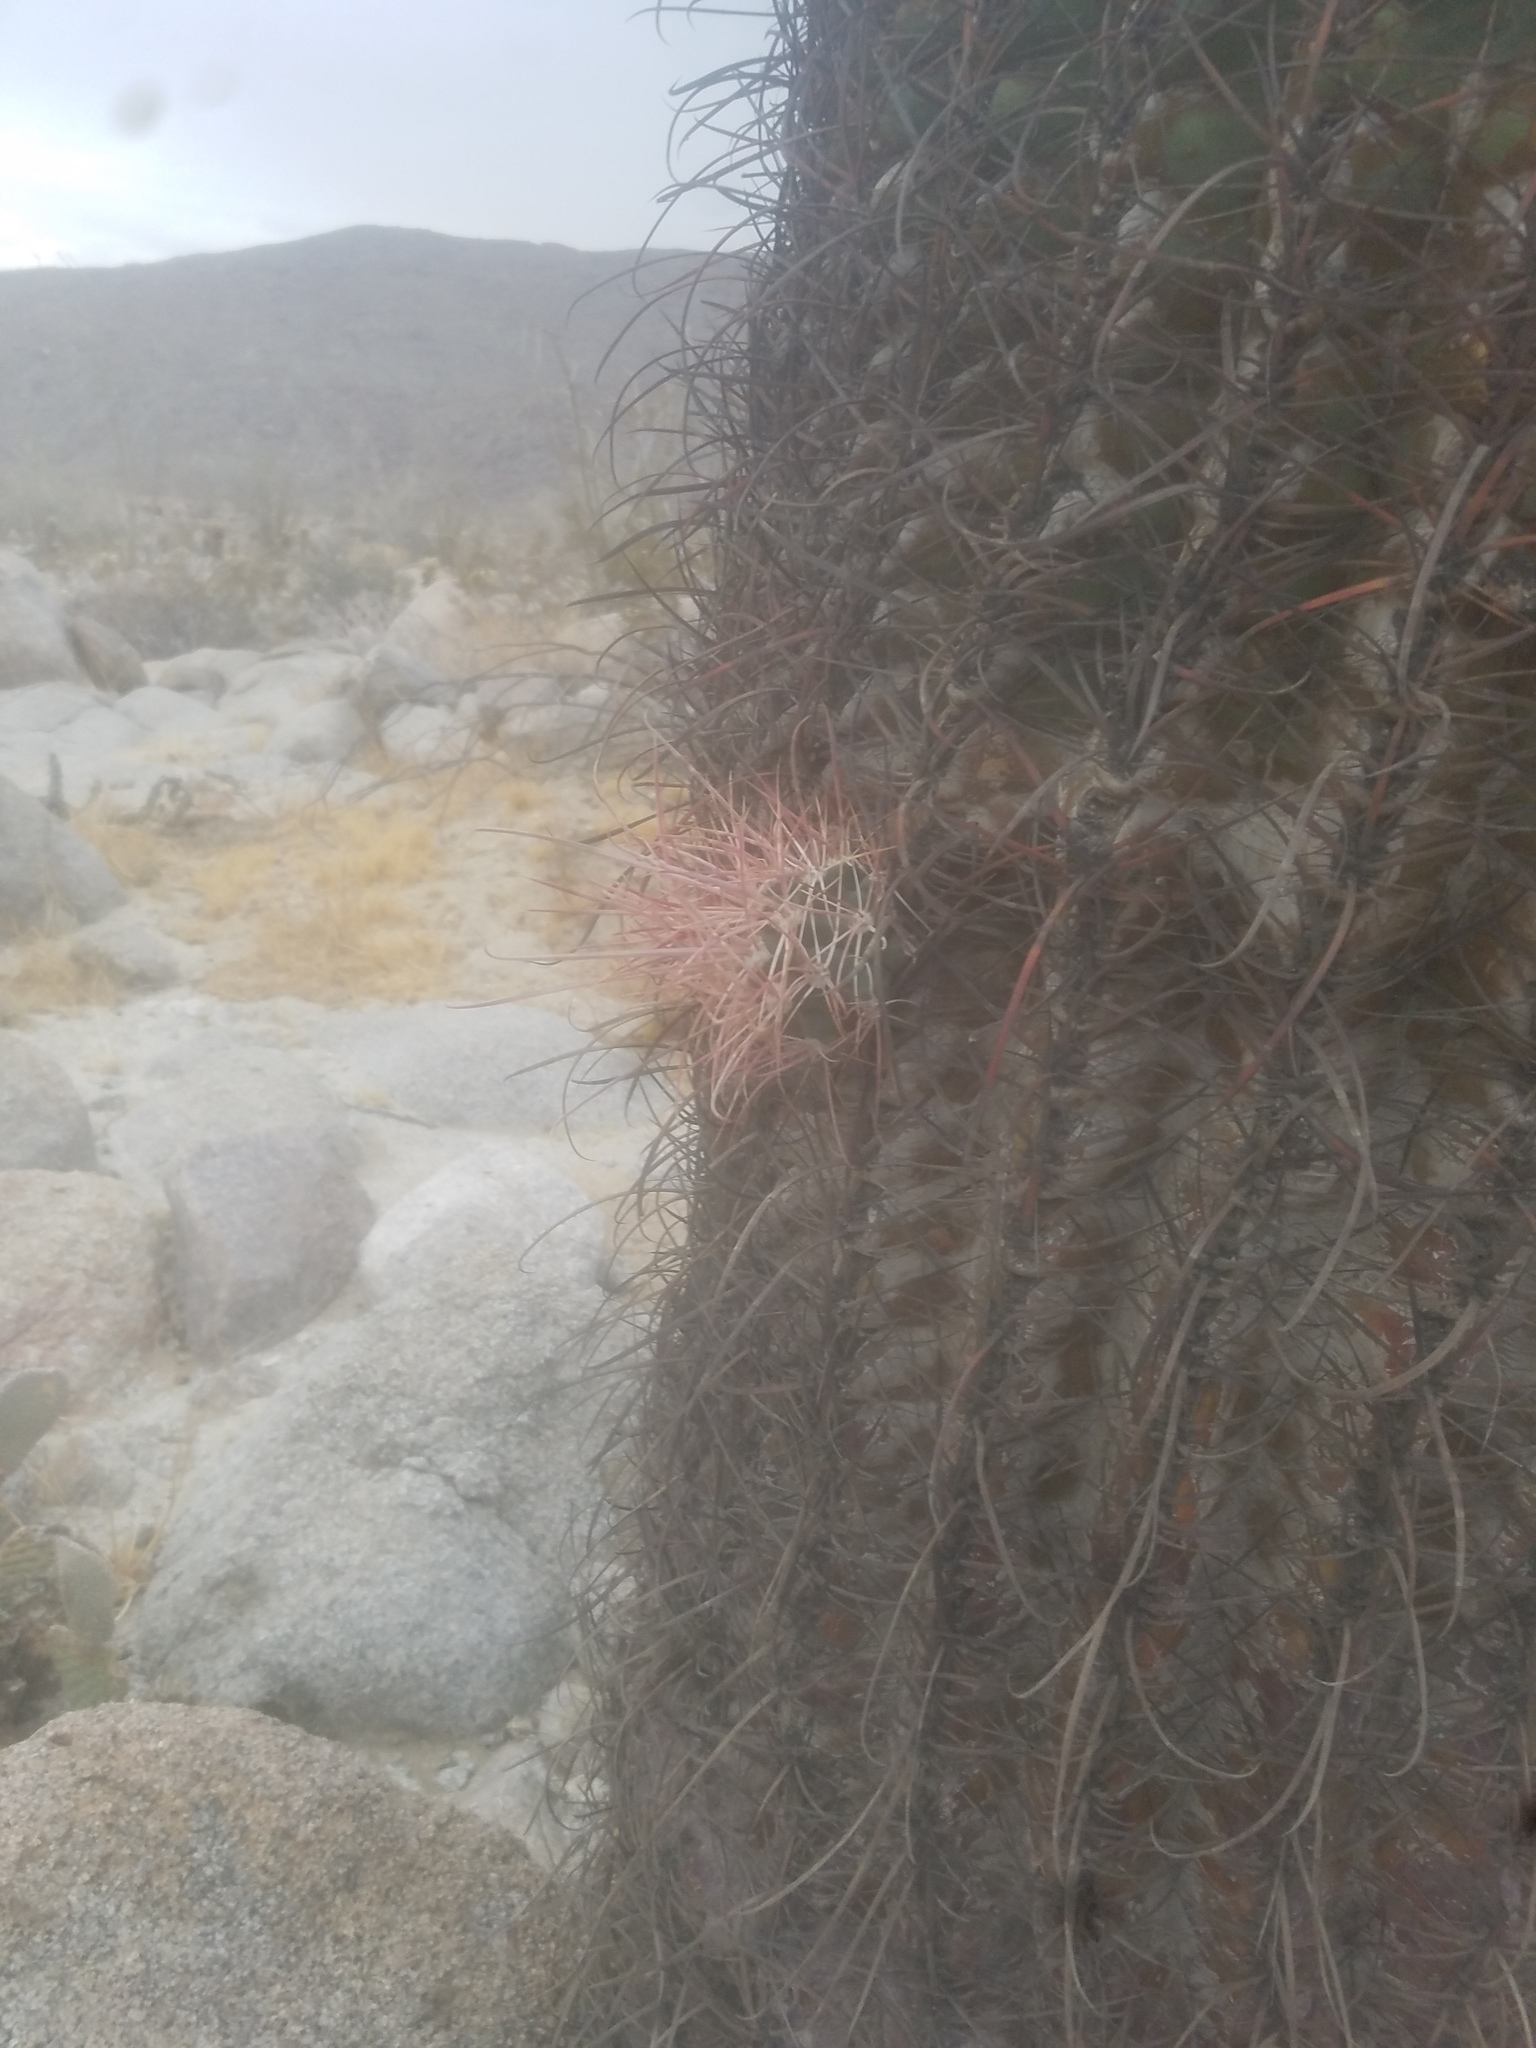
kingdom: Plantae
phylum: Tracheophyta
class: Magnoliopsida
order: Caryophyllales
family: Cactaceae
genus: Ferocactus
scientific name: Ferocactus cylindraceus
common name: California barrel cactus
